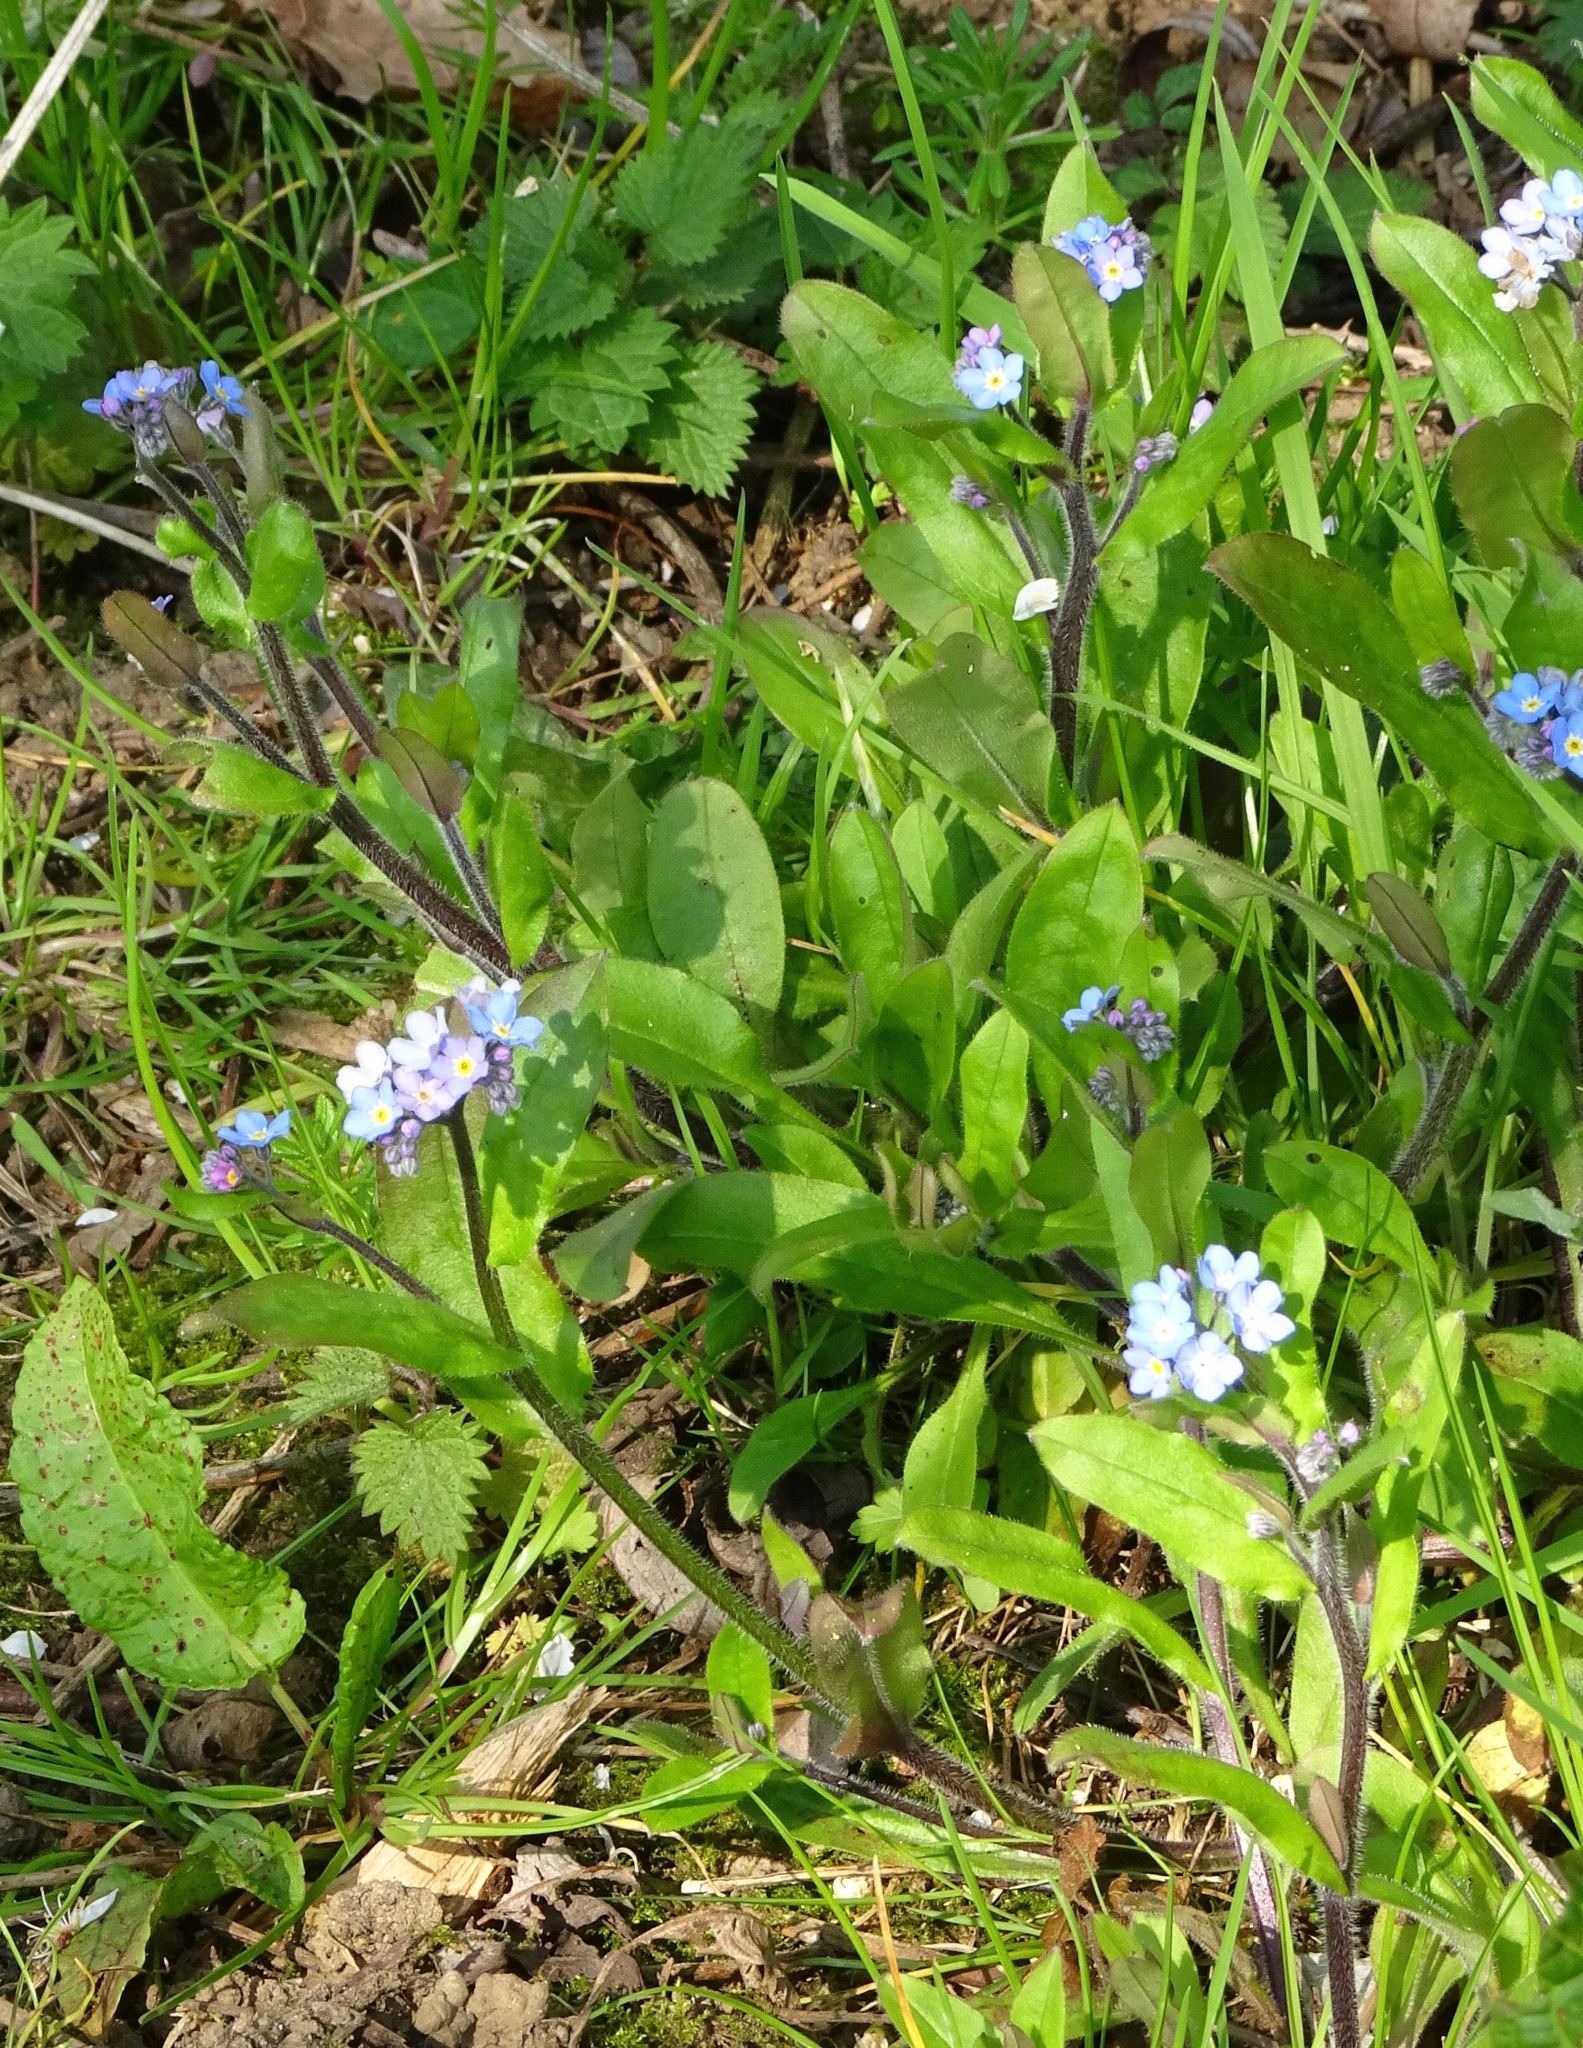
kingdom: Plantae
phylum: Tracheophyta
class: Magnoliopsida
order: Boraginales
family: Boraginaceae
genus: Myosotis
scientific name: Myosotis sylvatica
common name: Wood forget-me-not
